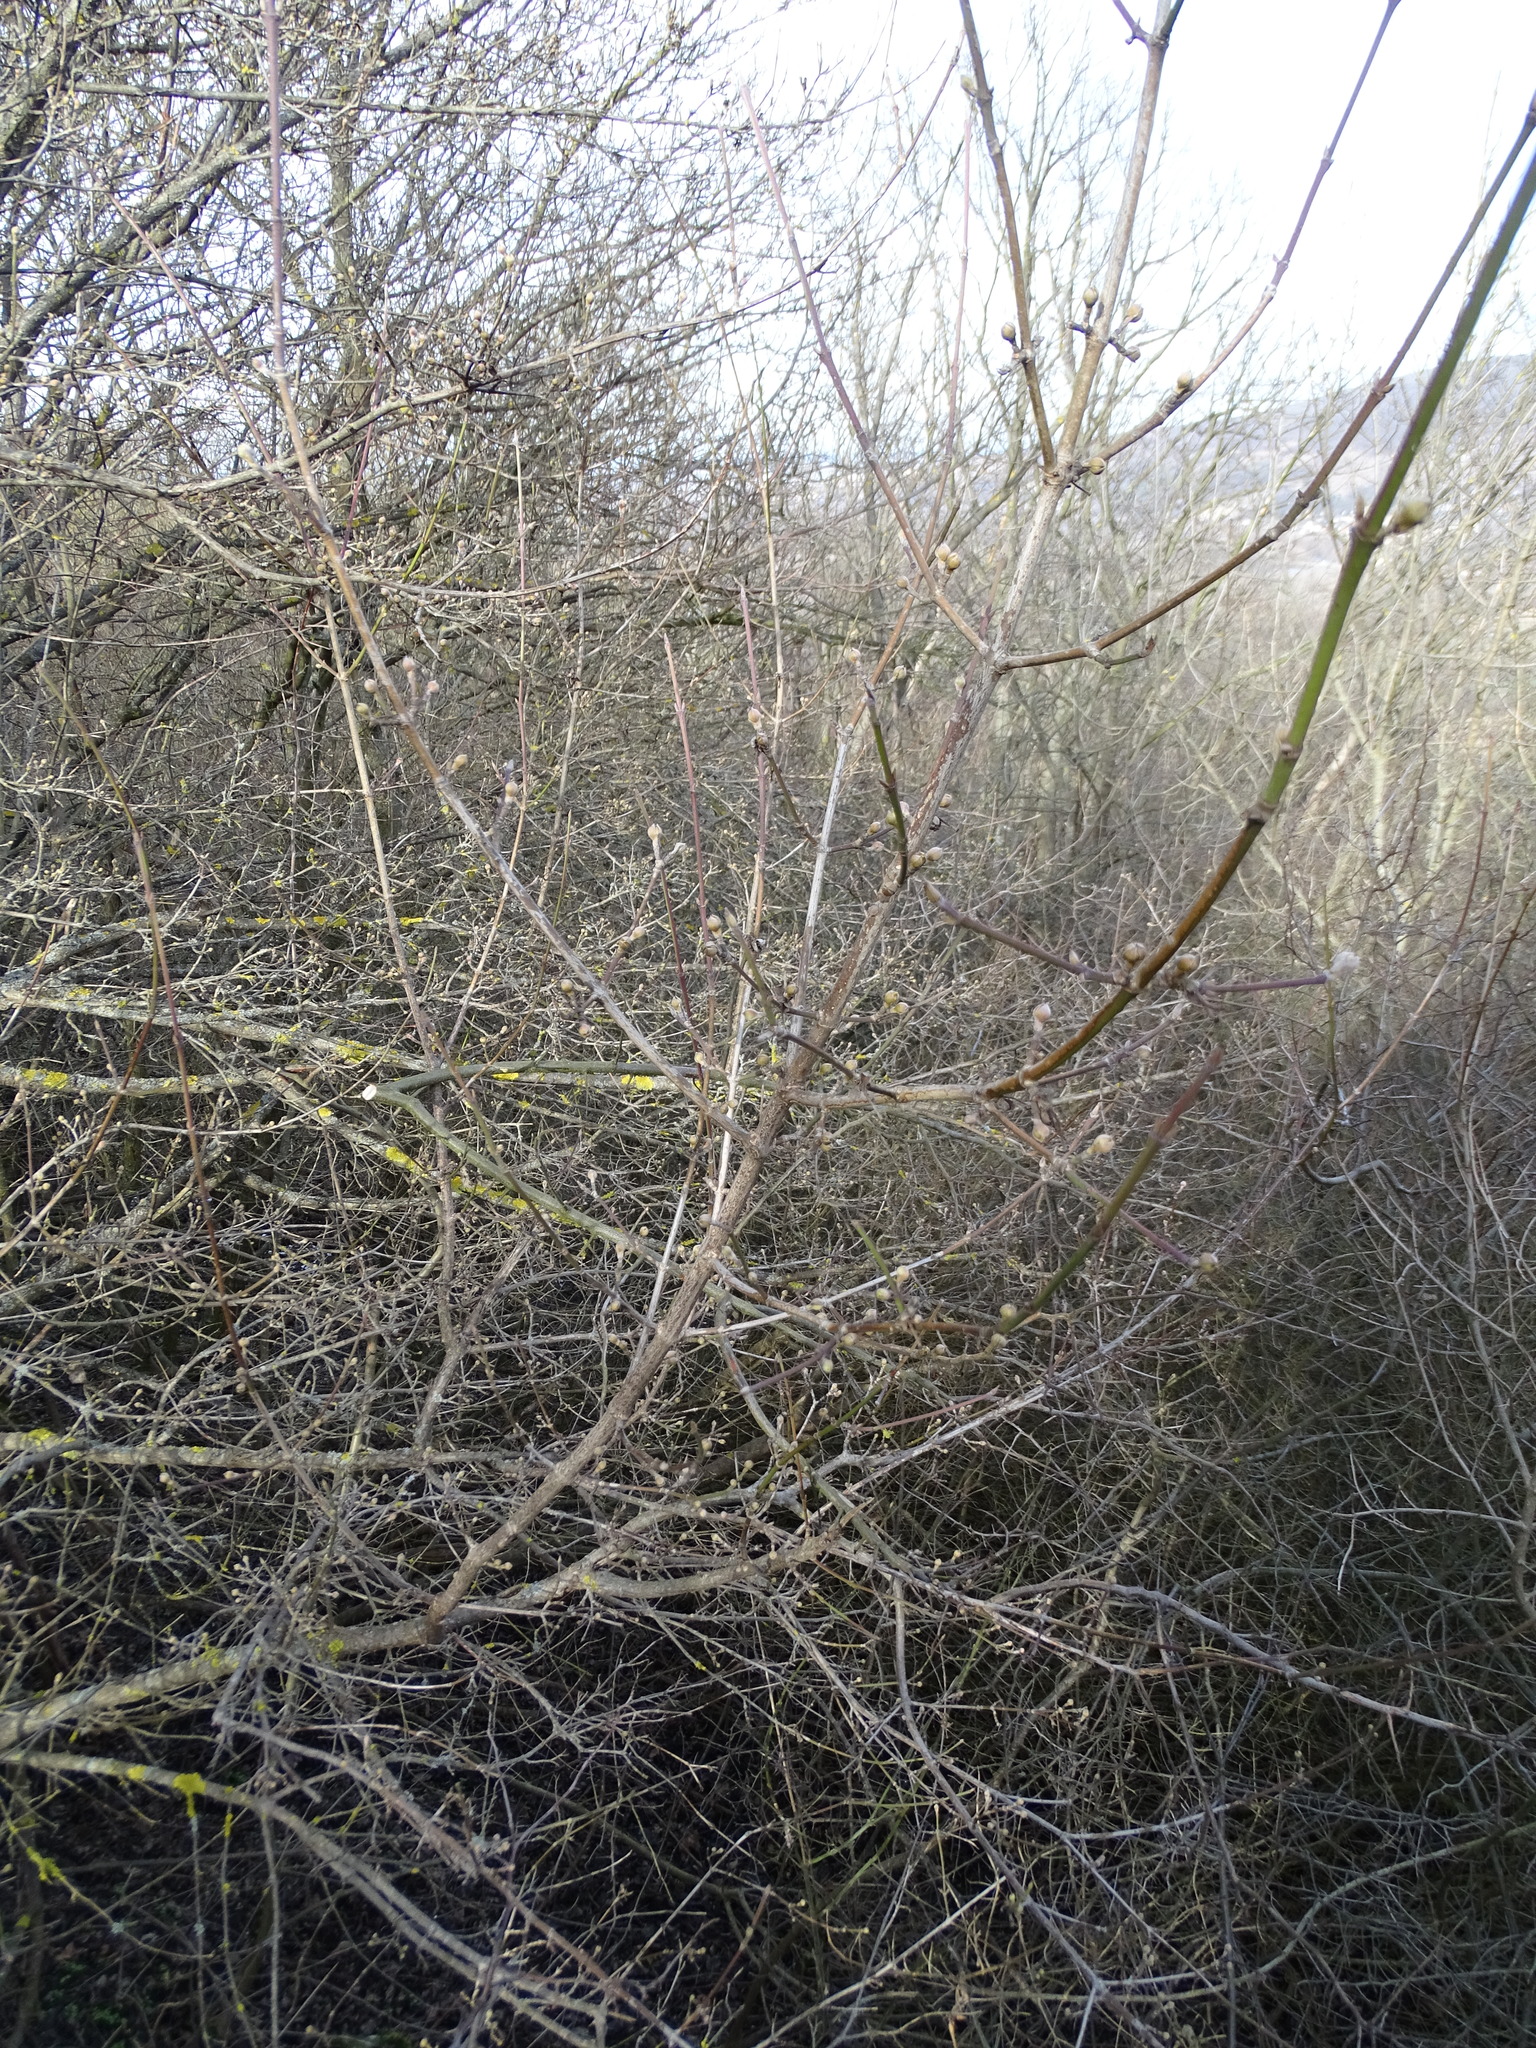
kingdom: Plantae
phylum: Tracheophyta
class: Magnoliopsida
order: Cornales
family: Cornaceae
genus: Cornus
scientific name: Cornus mas
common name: Cornelian-cherry
